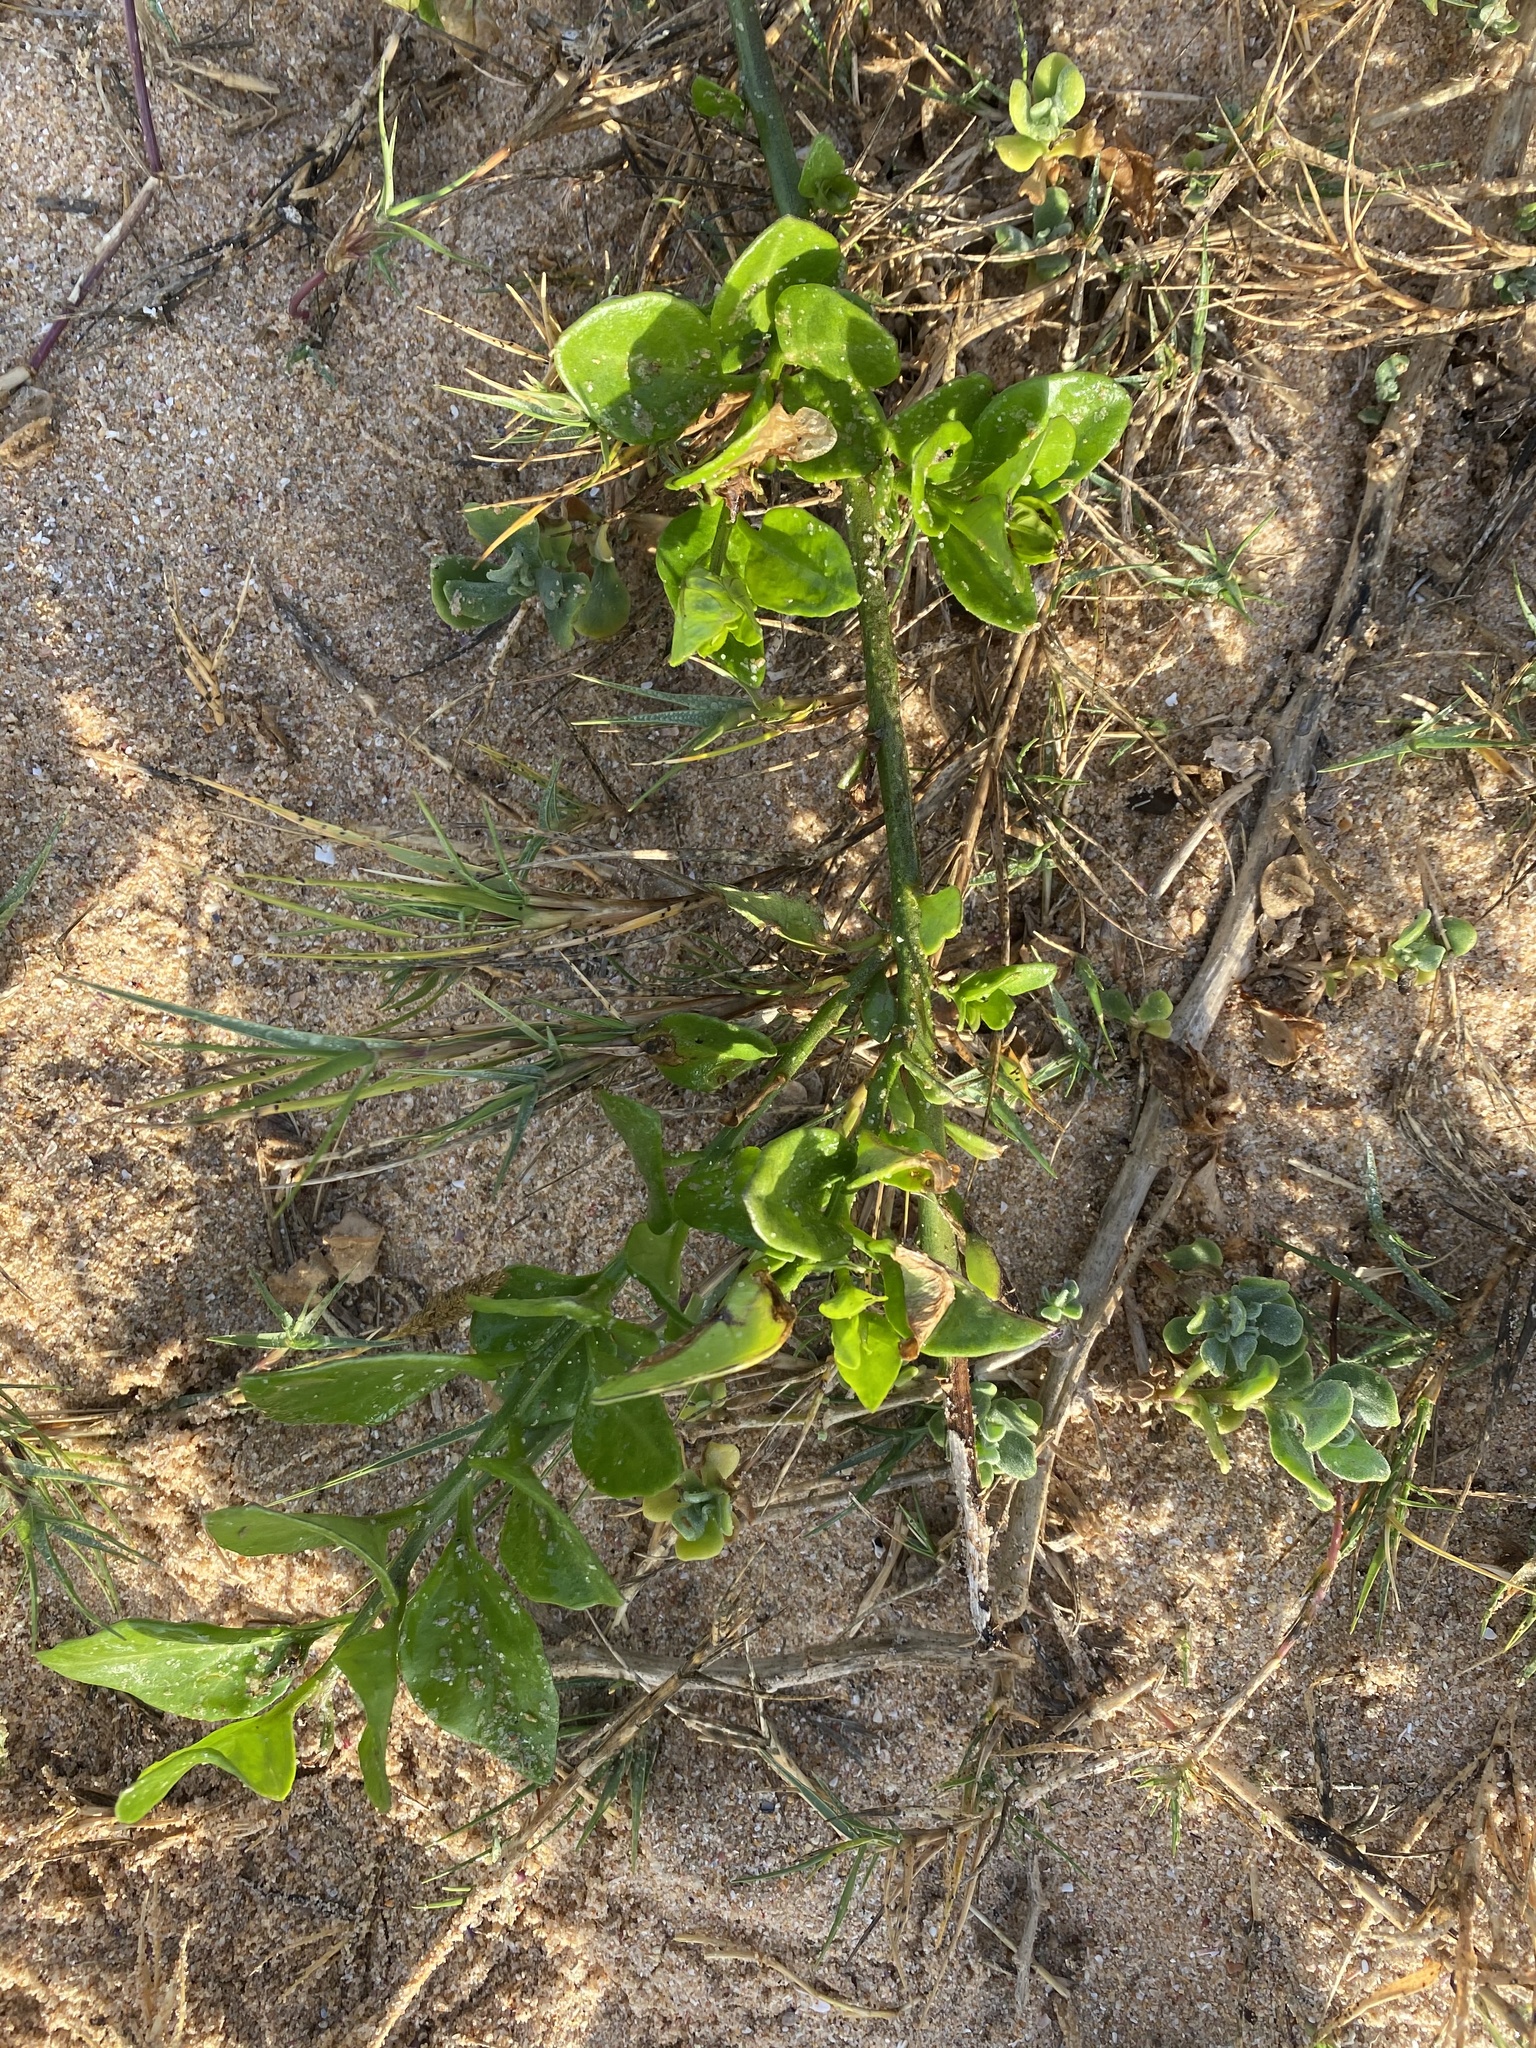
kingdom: Plantae
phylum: Tracheophyta
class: Magnoliopsida
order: Solanales
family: Solanaceae
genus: Solanum
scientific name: Solanum africanum
